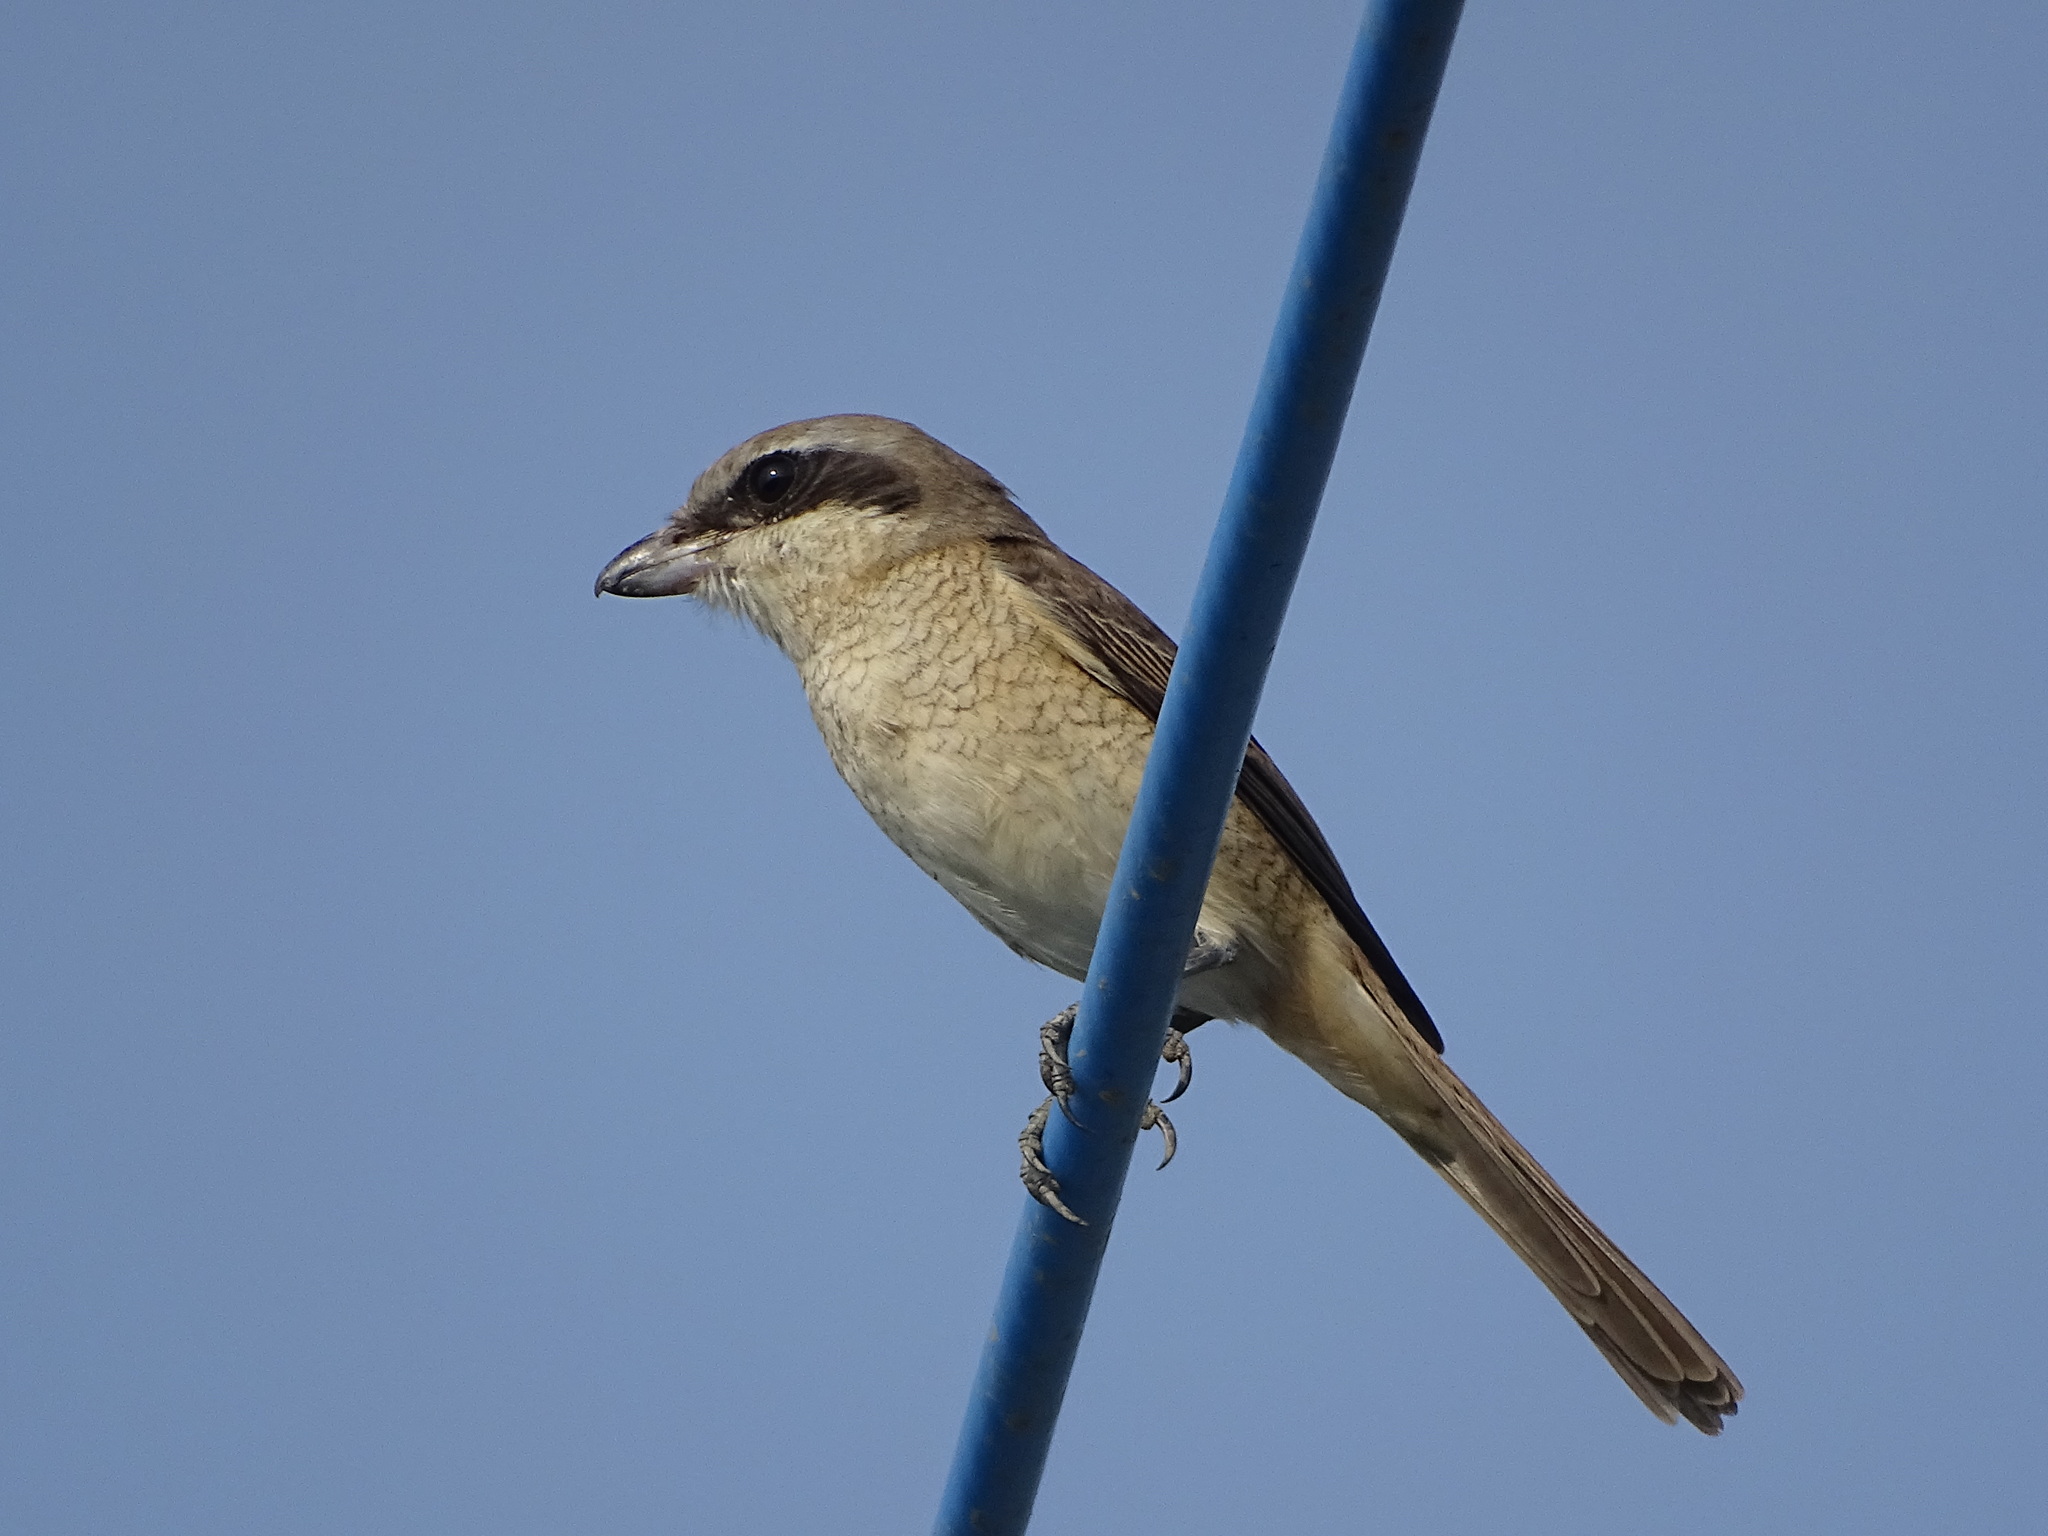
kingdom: Animalia
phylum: Chordata
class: Aves
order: Passeriformes
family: Laniidae
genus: Lanius
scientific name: Lanius cristatus
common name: Brown shrike
